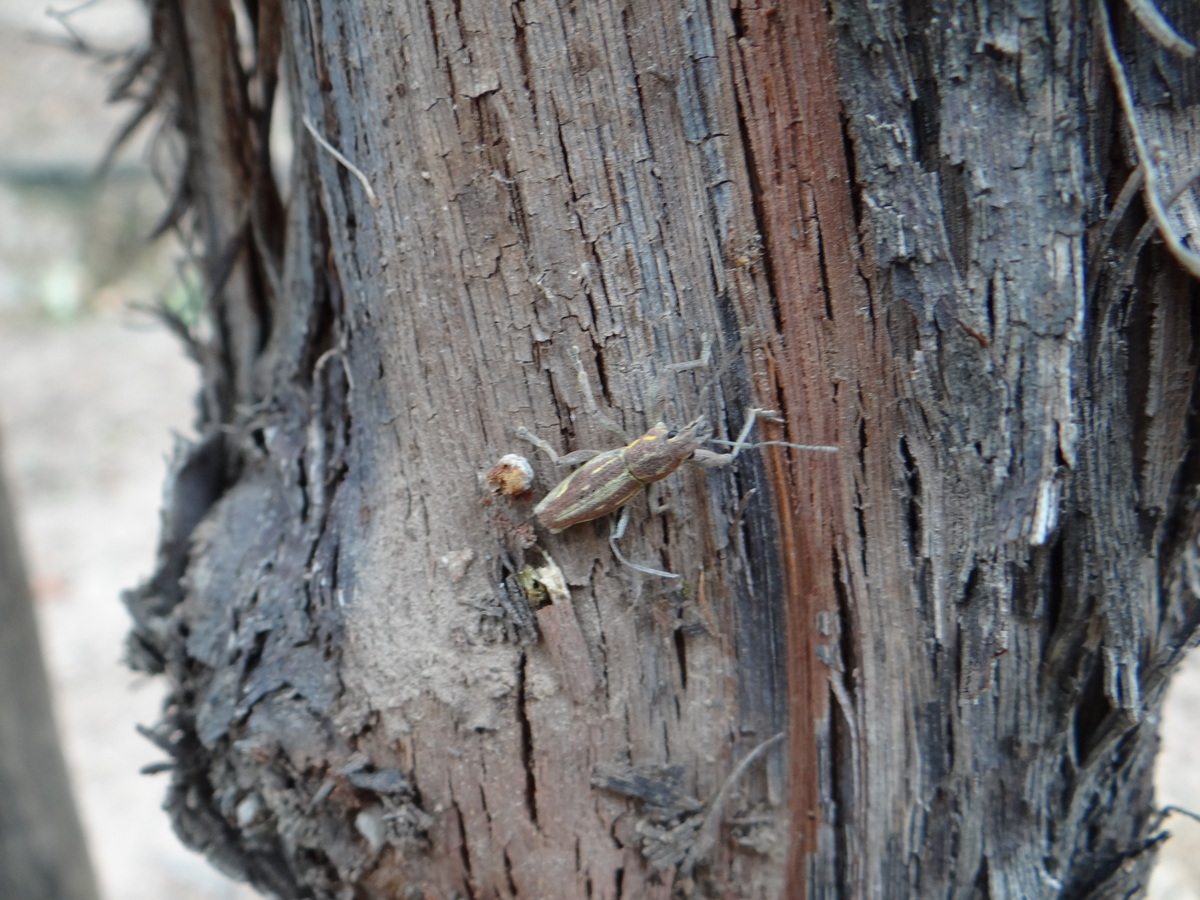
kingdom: Animalia
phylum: Arthropoda
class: Insecta
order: Coleoptera
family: Curculionidae
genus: Naupactus
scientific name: Naupactus xanthographus
